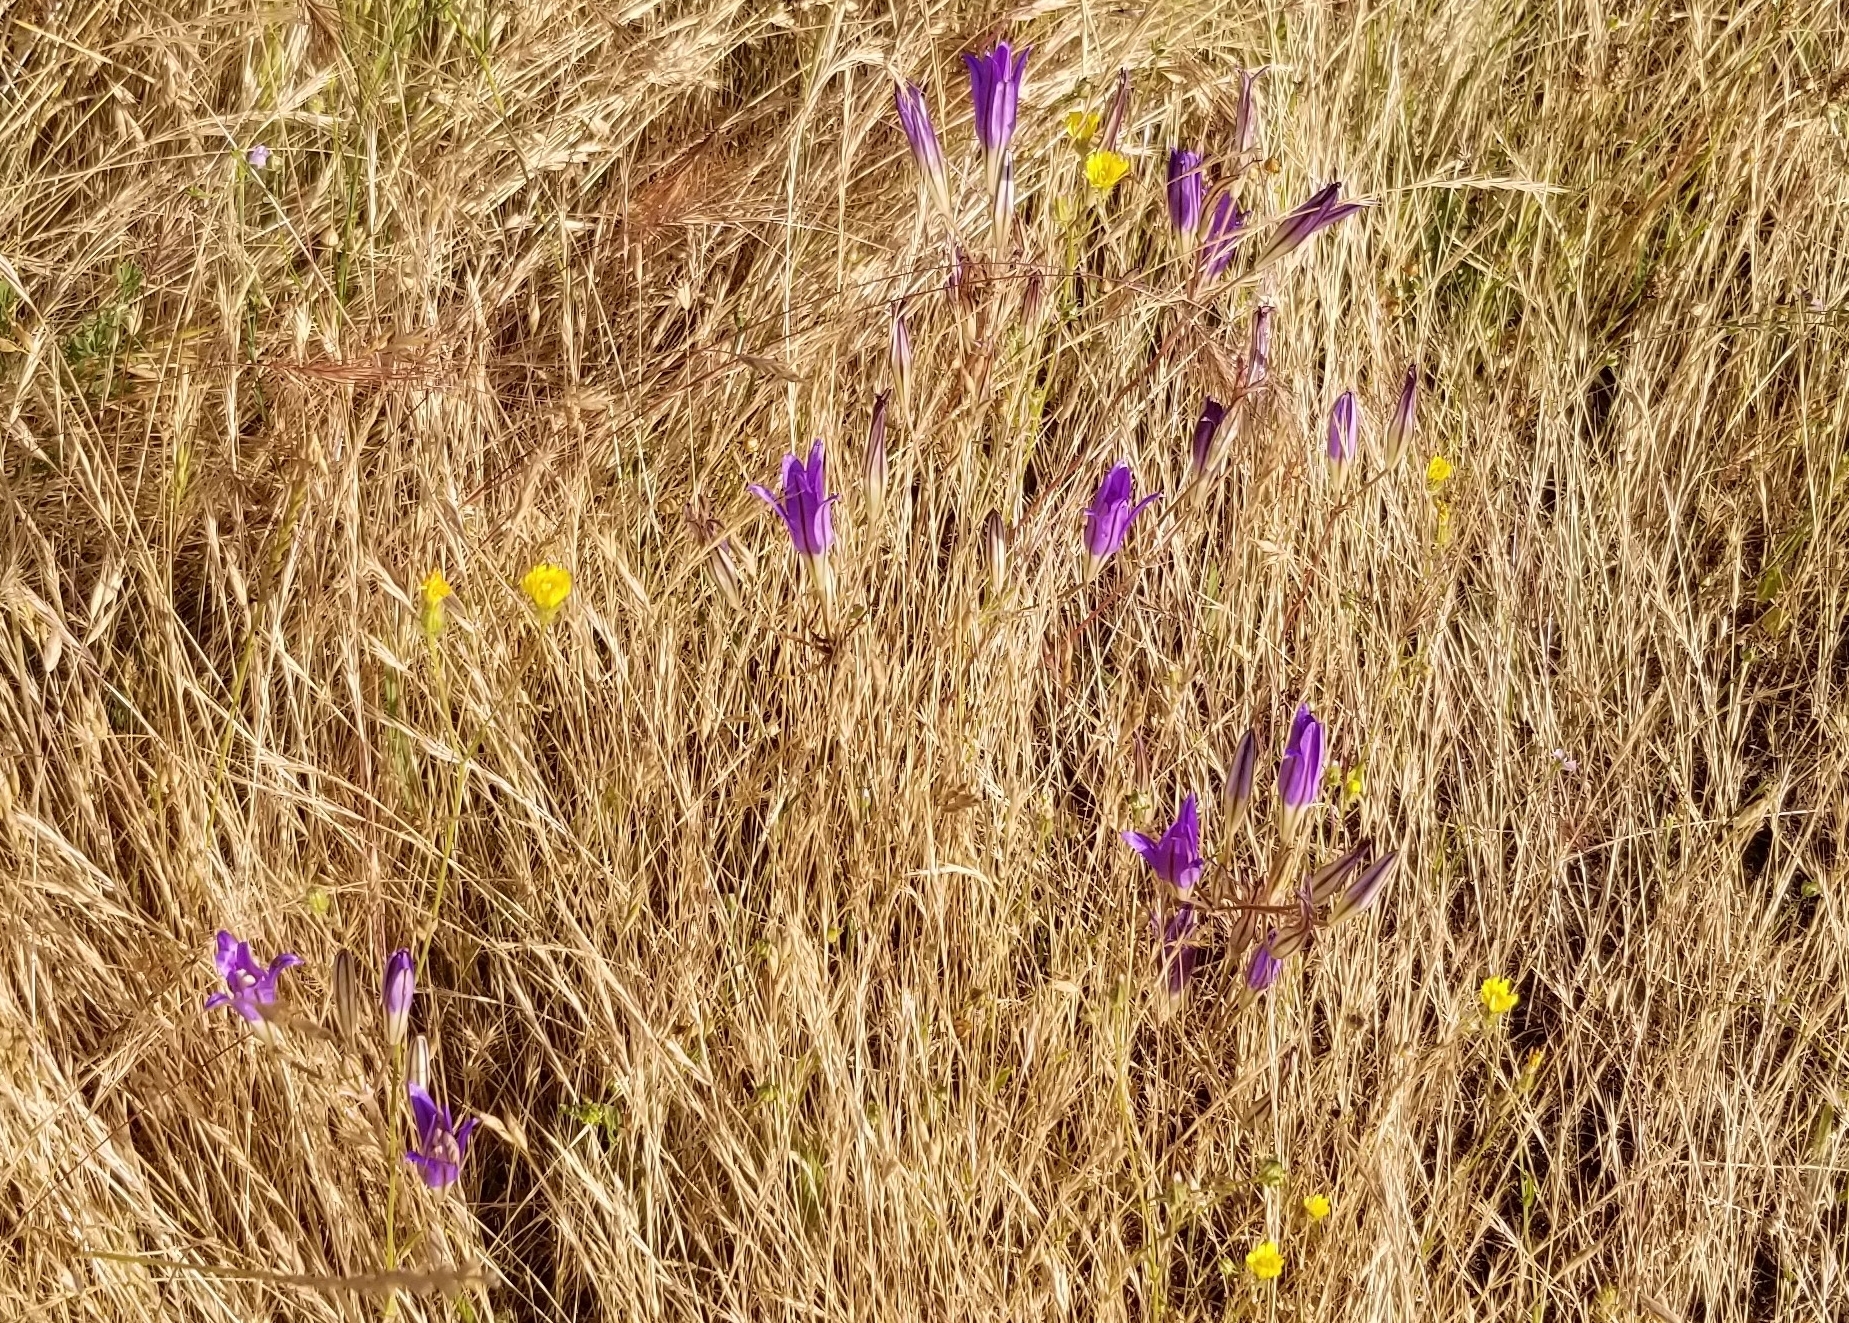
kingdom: Plantae
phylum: Tracheophyta
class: Liliopsida
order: Asparagales
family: Asparagaceae
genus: Brodiaea
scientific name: Brodiaea elegans
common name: Elegant cluster-lily
